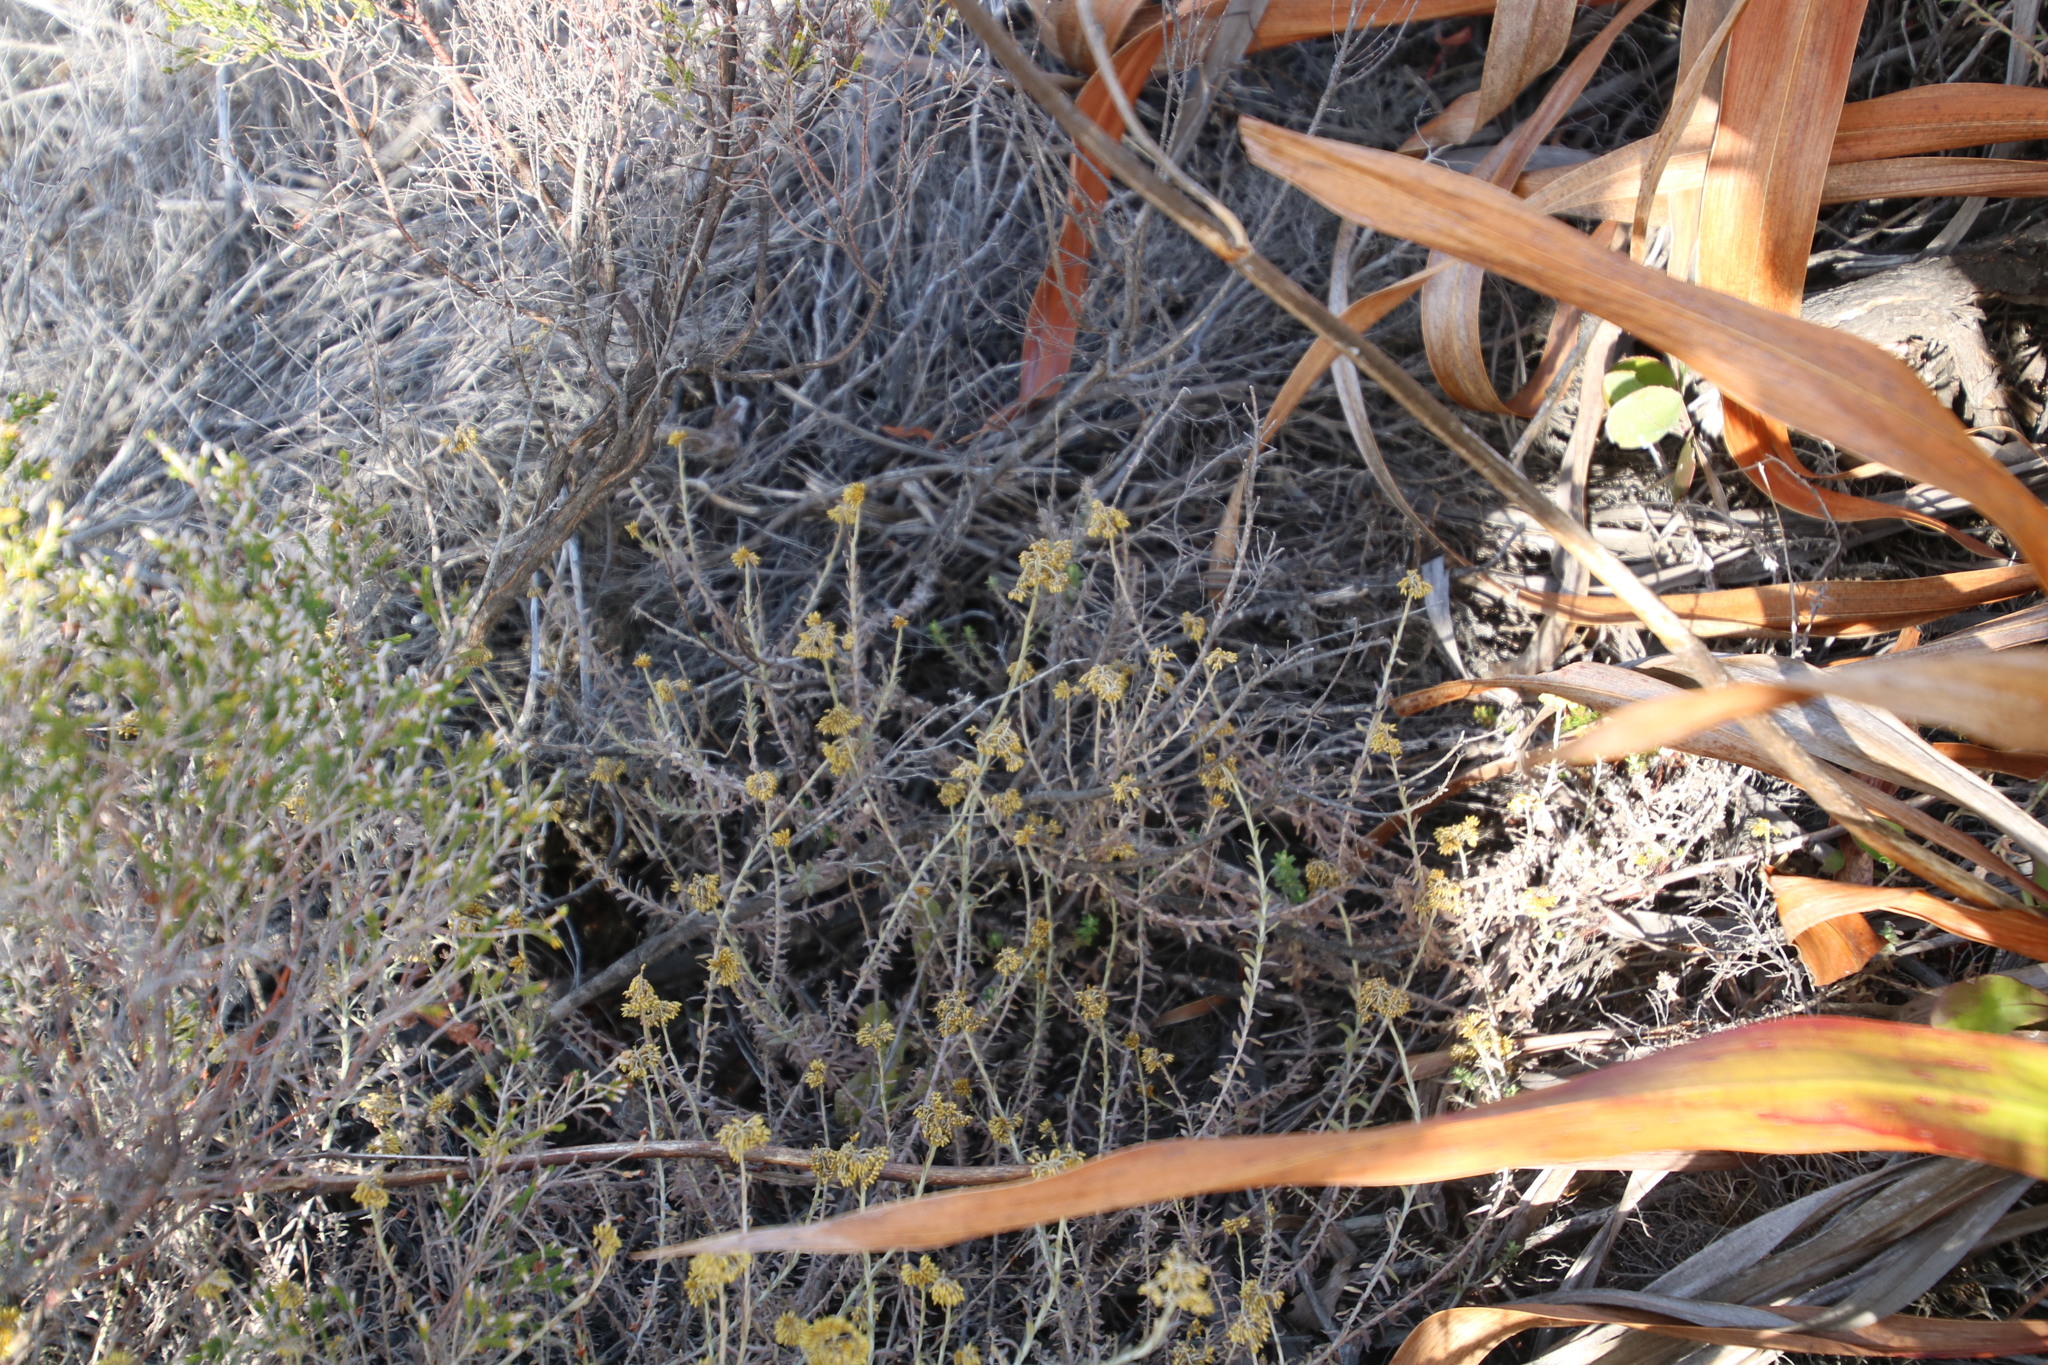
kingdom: Plantae
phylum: Tracheophyta
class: Magnoliopsida
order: Asterales
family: Asteraceae
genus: Helichrysum
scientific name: Helichrysum cymosum
